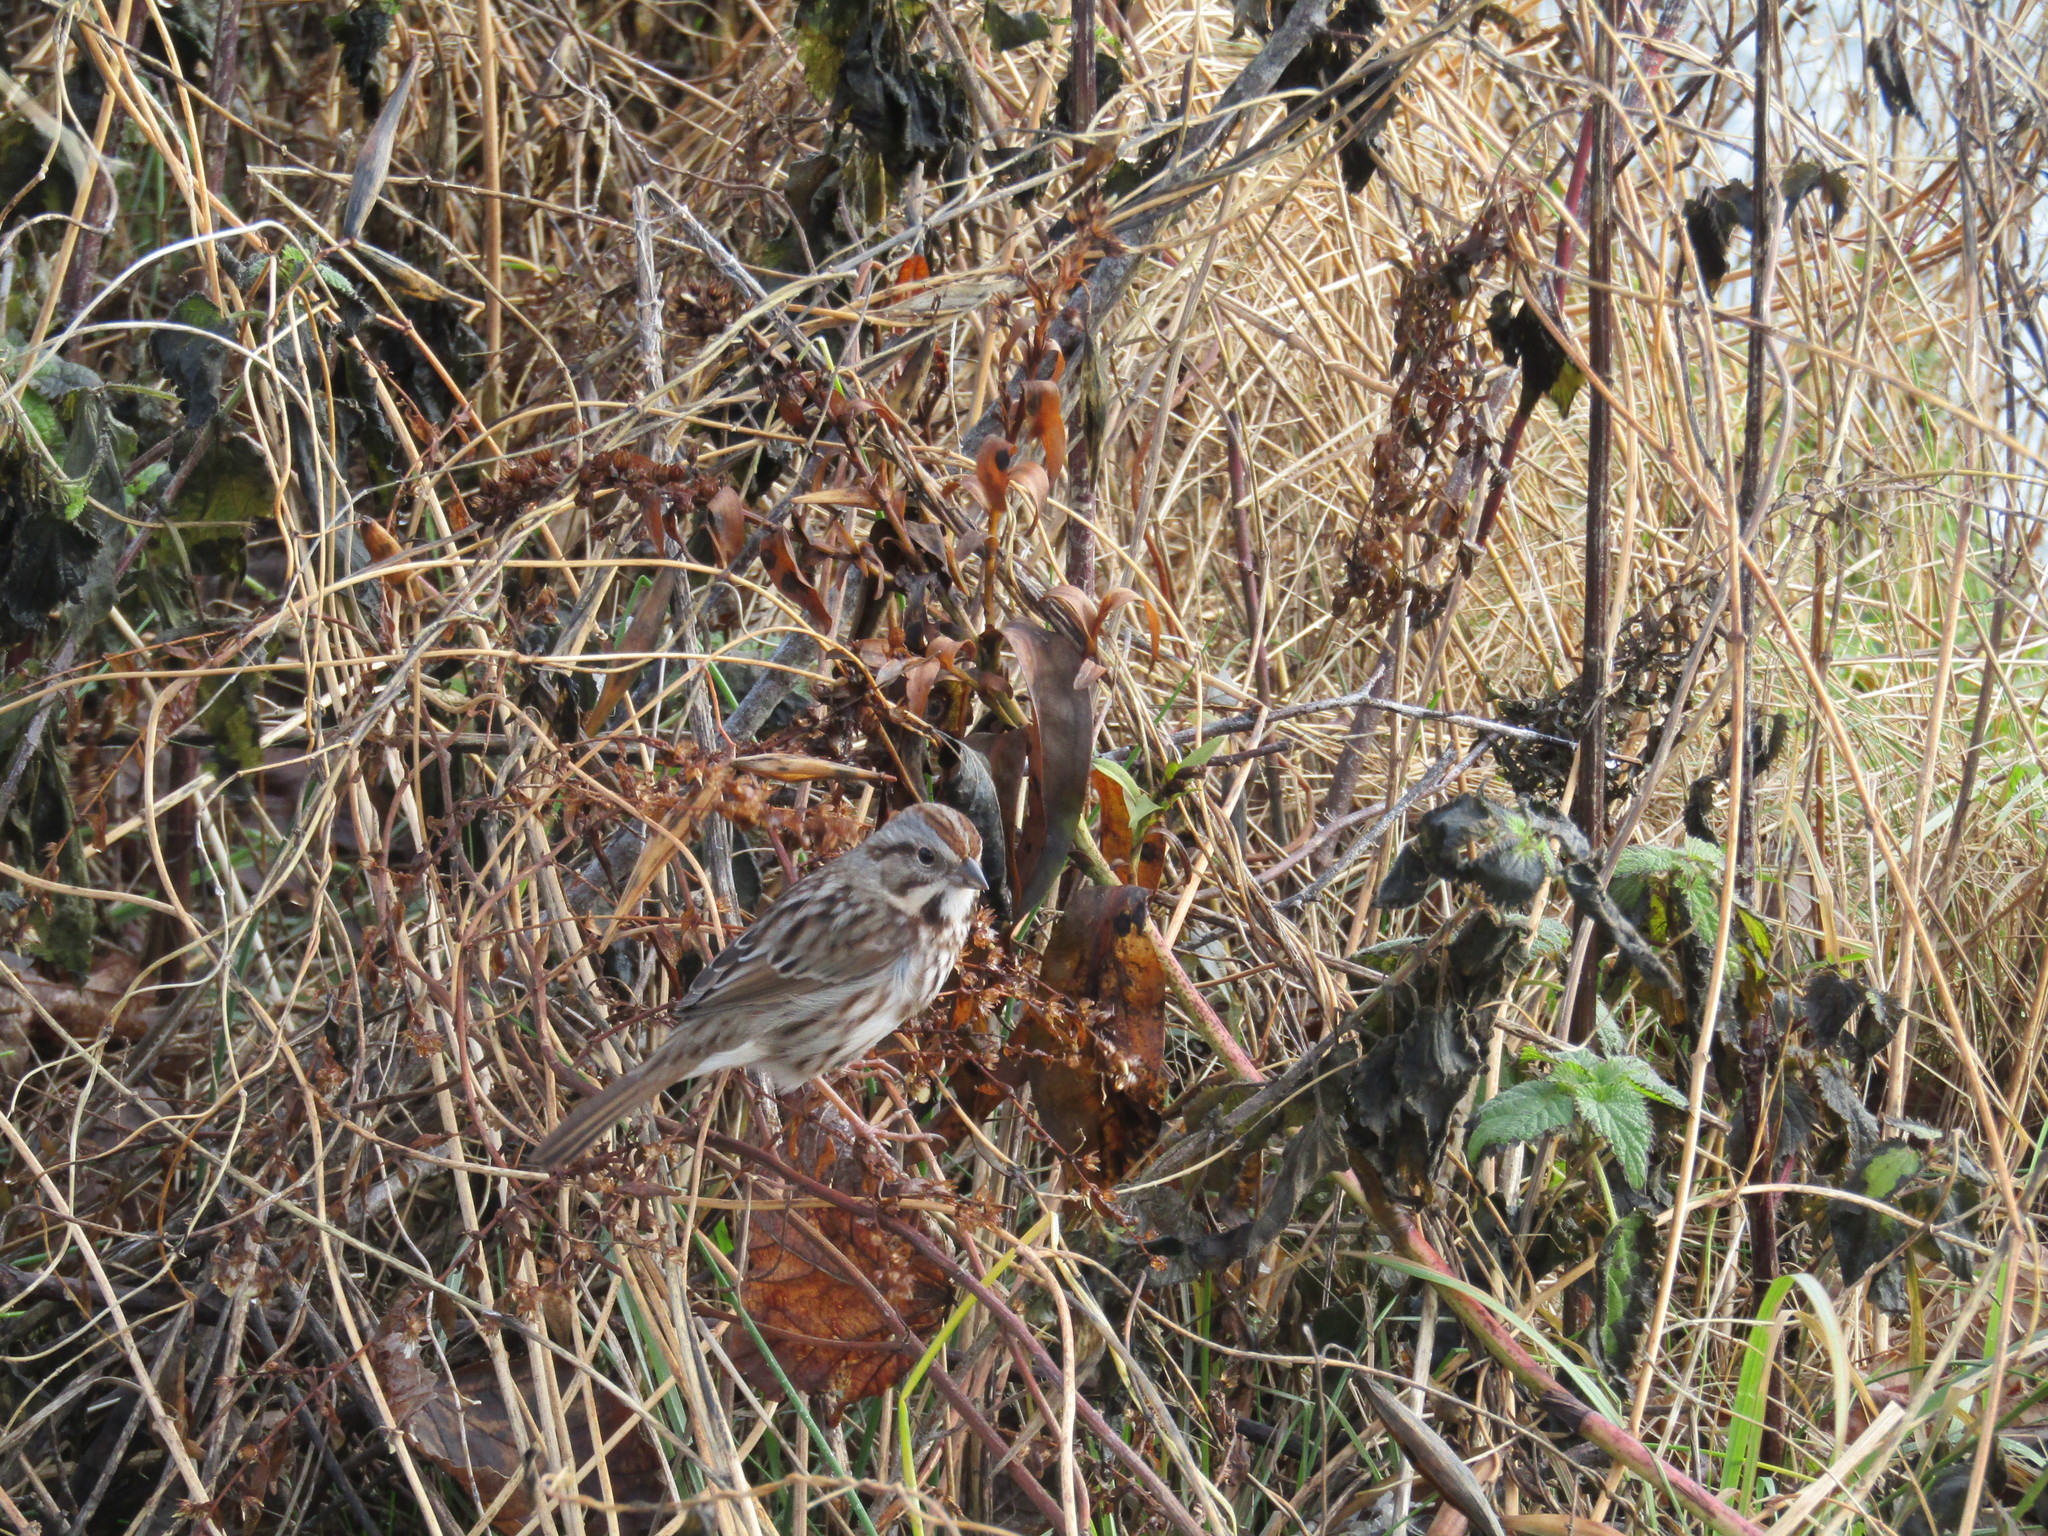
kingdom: Animalia
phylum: Chordata
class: Aves
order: Passeriformes
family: Passerellidae
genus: Melospiza
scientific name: Melospiza melodia
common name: Song sparrow
